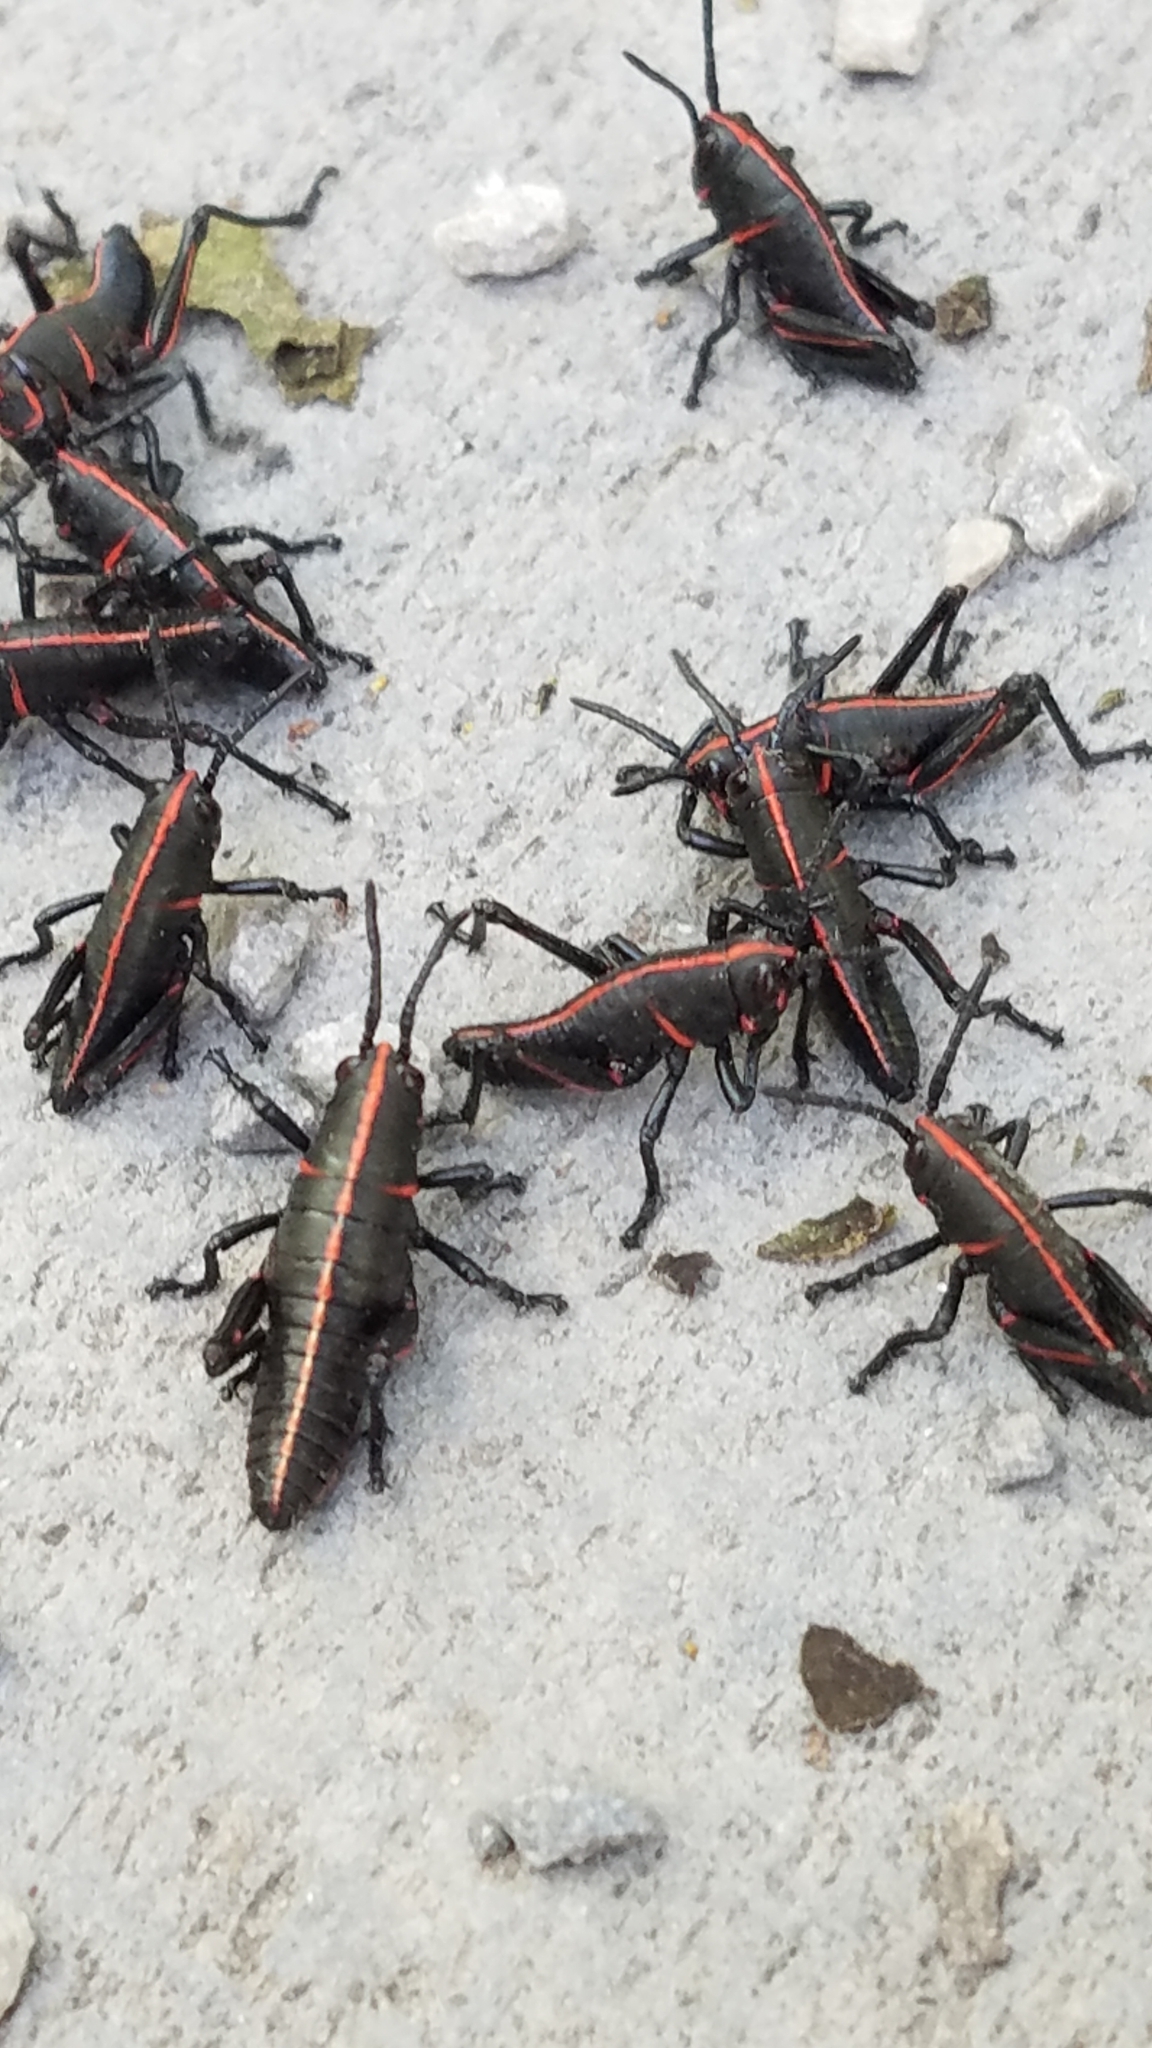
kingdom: Animalia
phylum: Arthropoda
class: Insecta
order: Orthoptera
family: Romaleidae
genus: Romalea
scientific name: Romalea microptera
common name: Eastern lubber grasshopper
